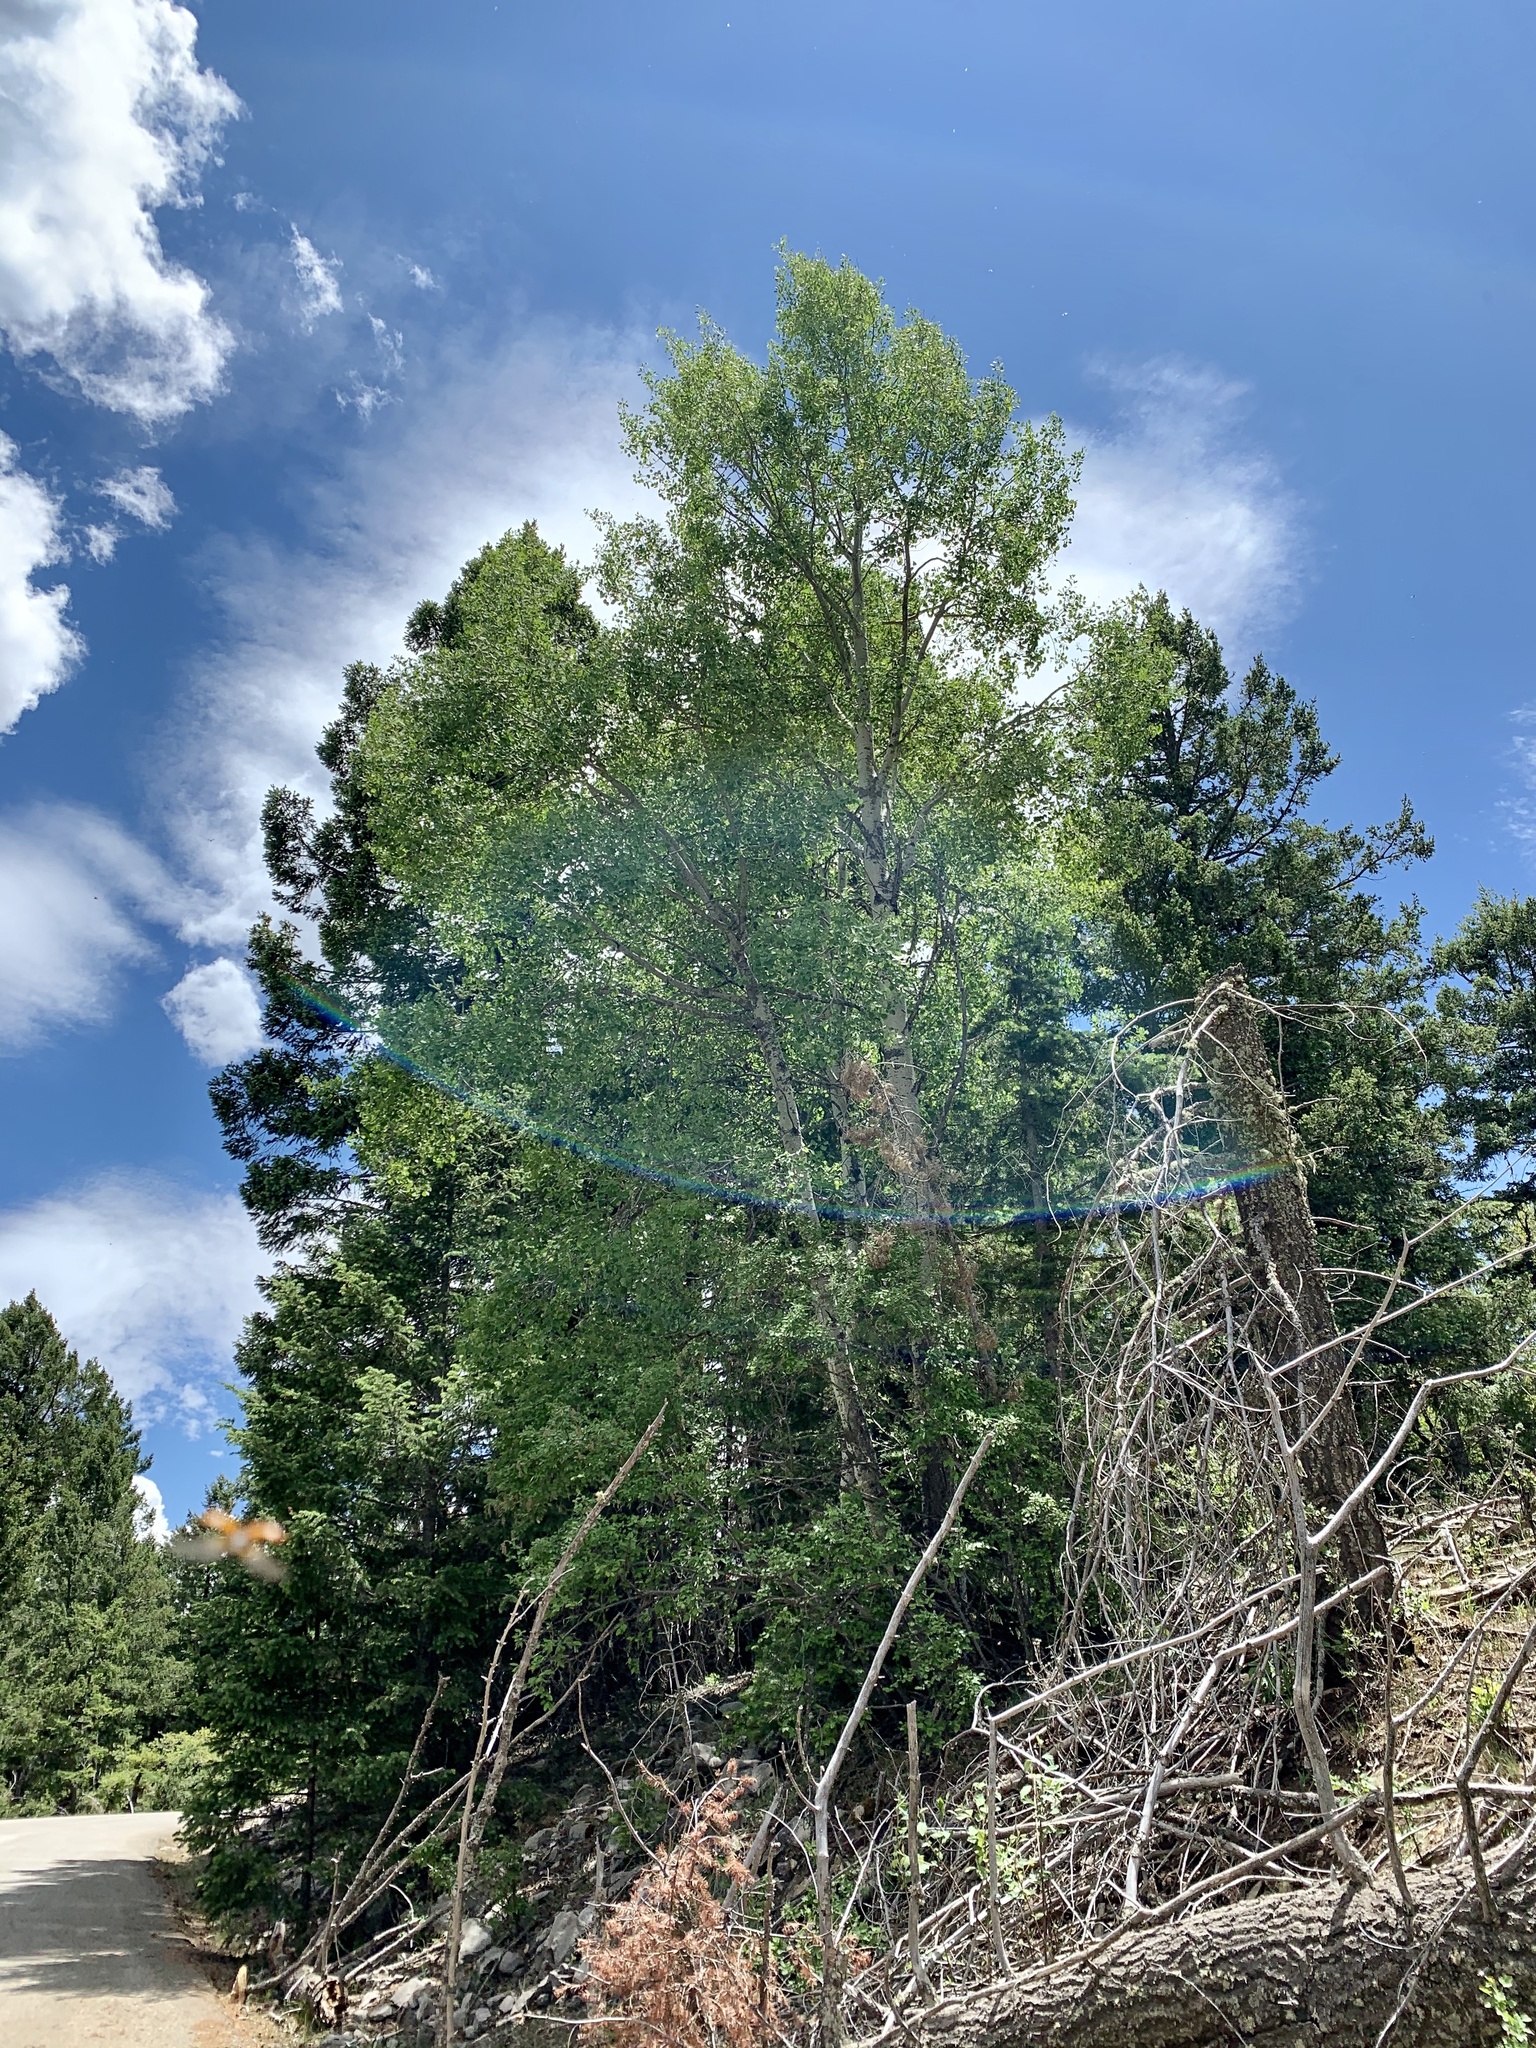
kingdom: Plantae
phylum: Tracheophyta
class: Magnoliopsida
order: Malpighiales
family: Salicaceae
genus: Populus
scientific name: Populus tremuloides
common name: Quaking aspen
